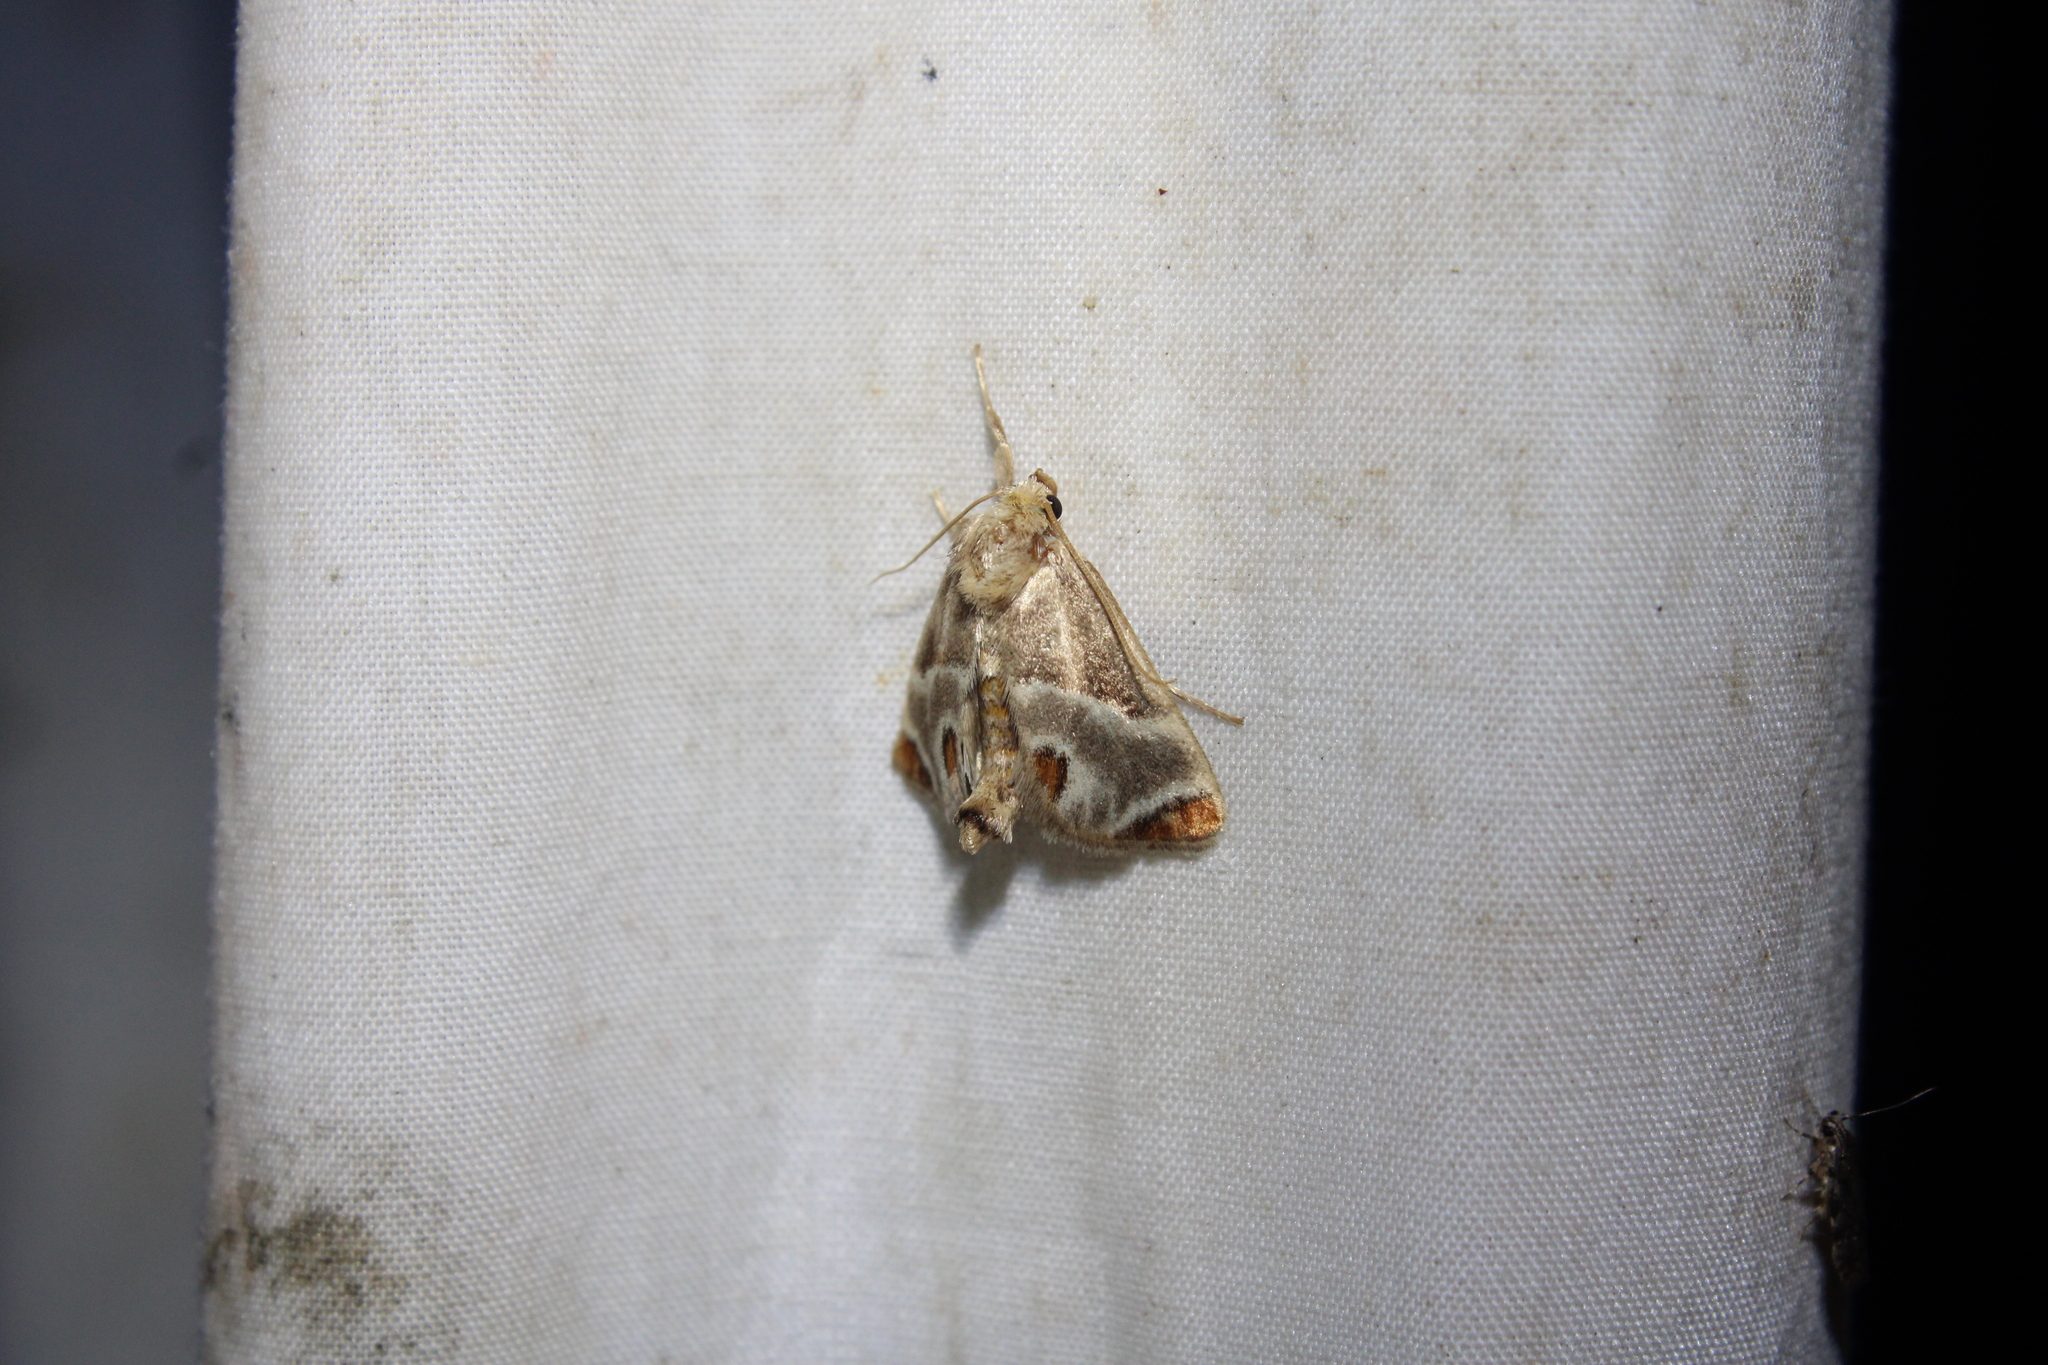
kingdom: Animalia
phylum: Arthropoda
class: Insecta
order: Lepidoptera
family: Limacodidae
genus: Apoda
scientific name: Apoda biguttata
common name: Shagreened slug moth
